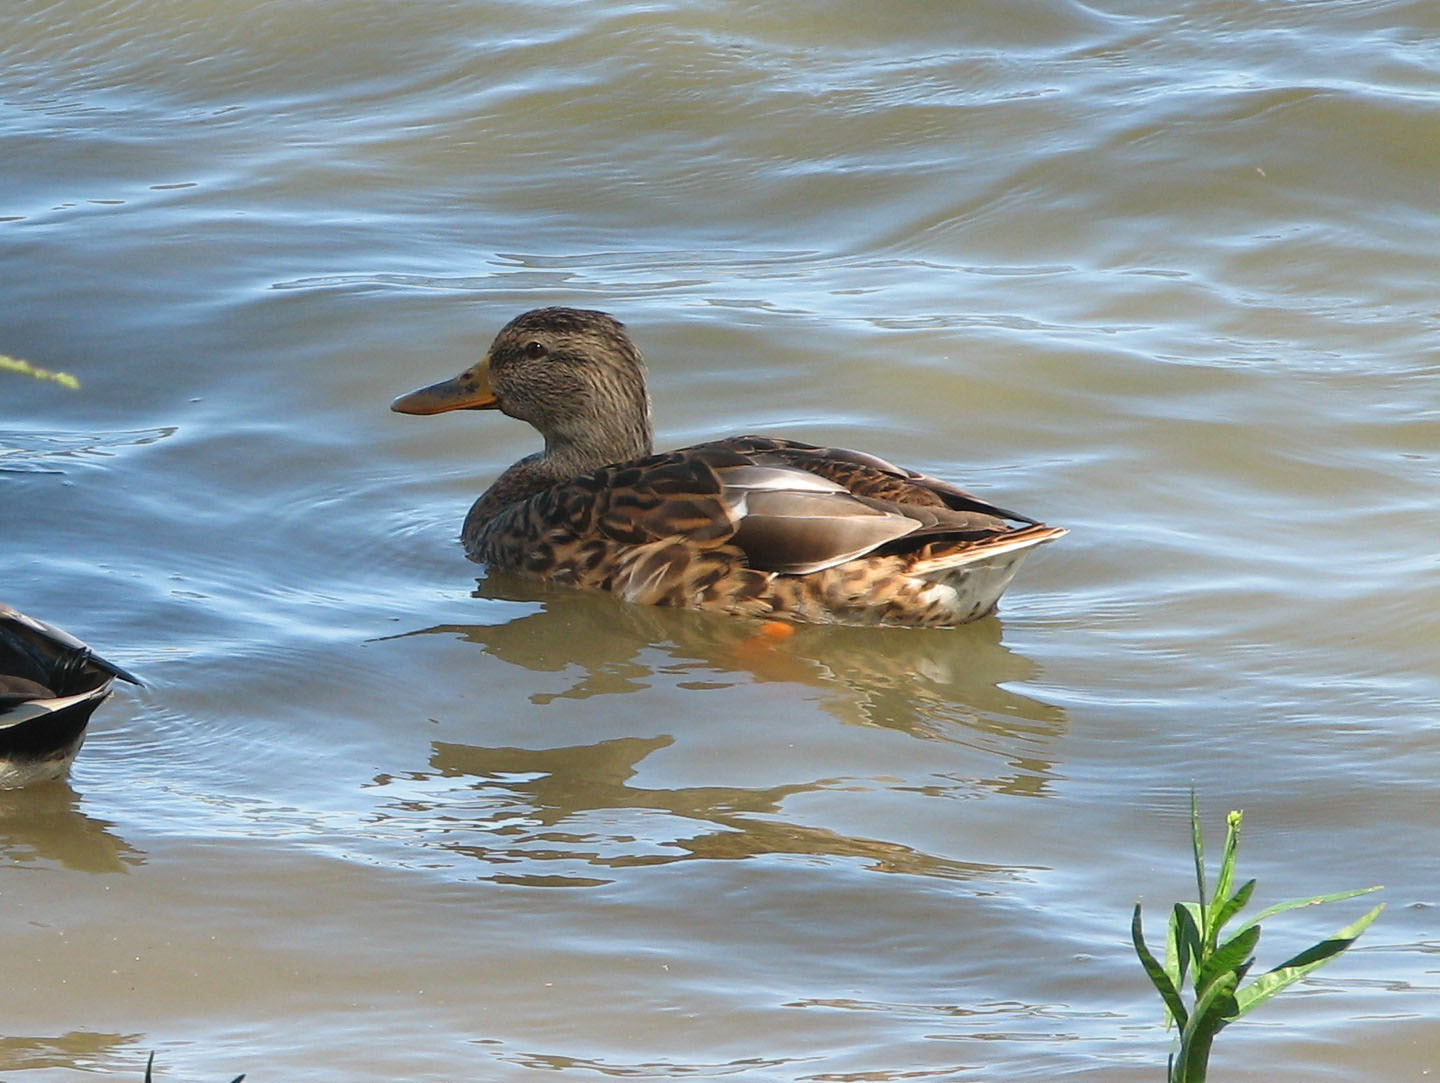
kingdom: Animalia
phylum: Chordata
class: Aves
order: Anseriformes
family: Anatidae
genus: Anas
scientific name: Anas platyrhynchos
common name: Mallard
